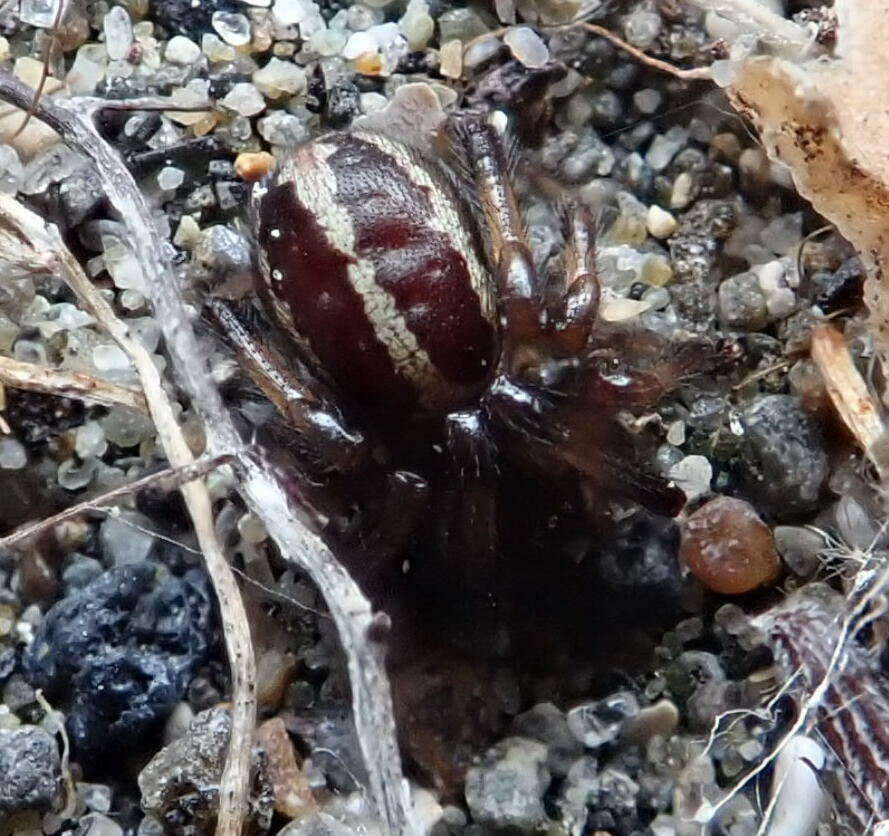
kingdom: Animalia
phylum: Arthropoda
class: Arachnida
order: Araneae
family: Theridiidae
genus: Steatoda
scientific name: Steatoda lepida
